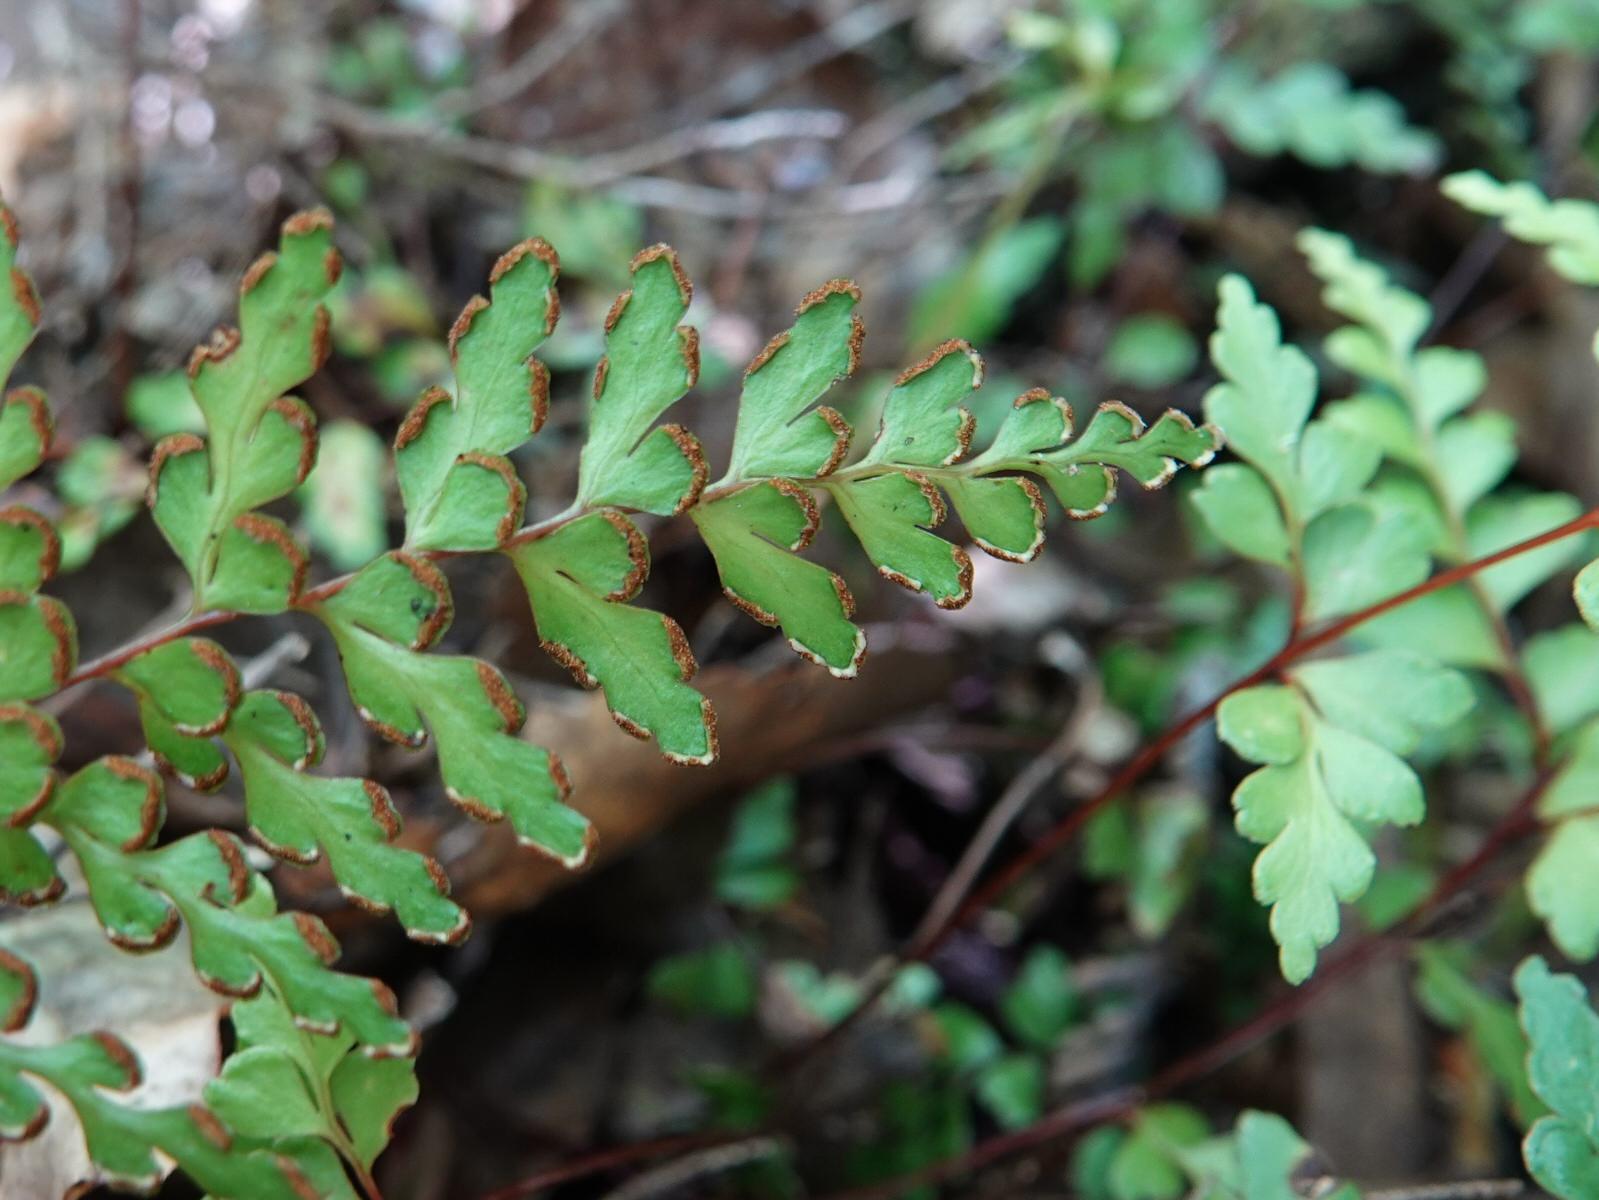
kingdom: Plantae
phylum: Tracheophyta
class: Polypodiopsida
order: Polypodiales
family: Lindsaeaceae
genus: Lindsaea
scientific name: Lindsaea trichomanoides
